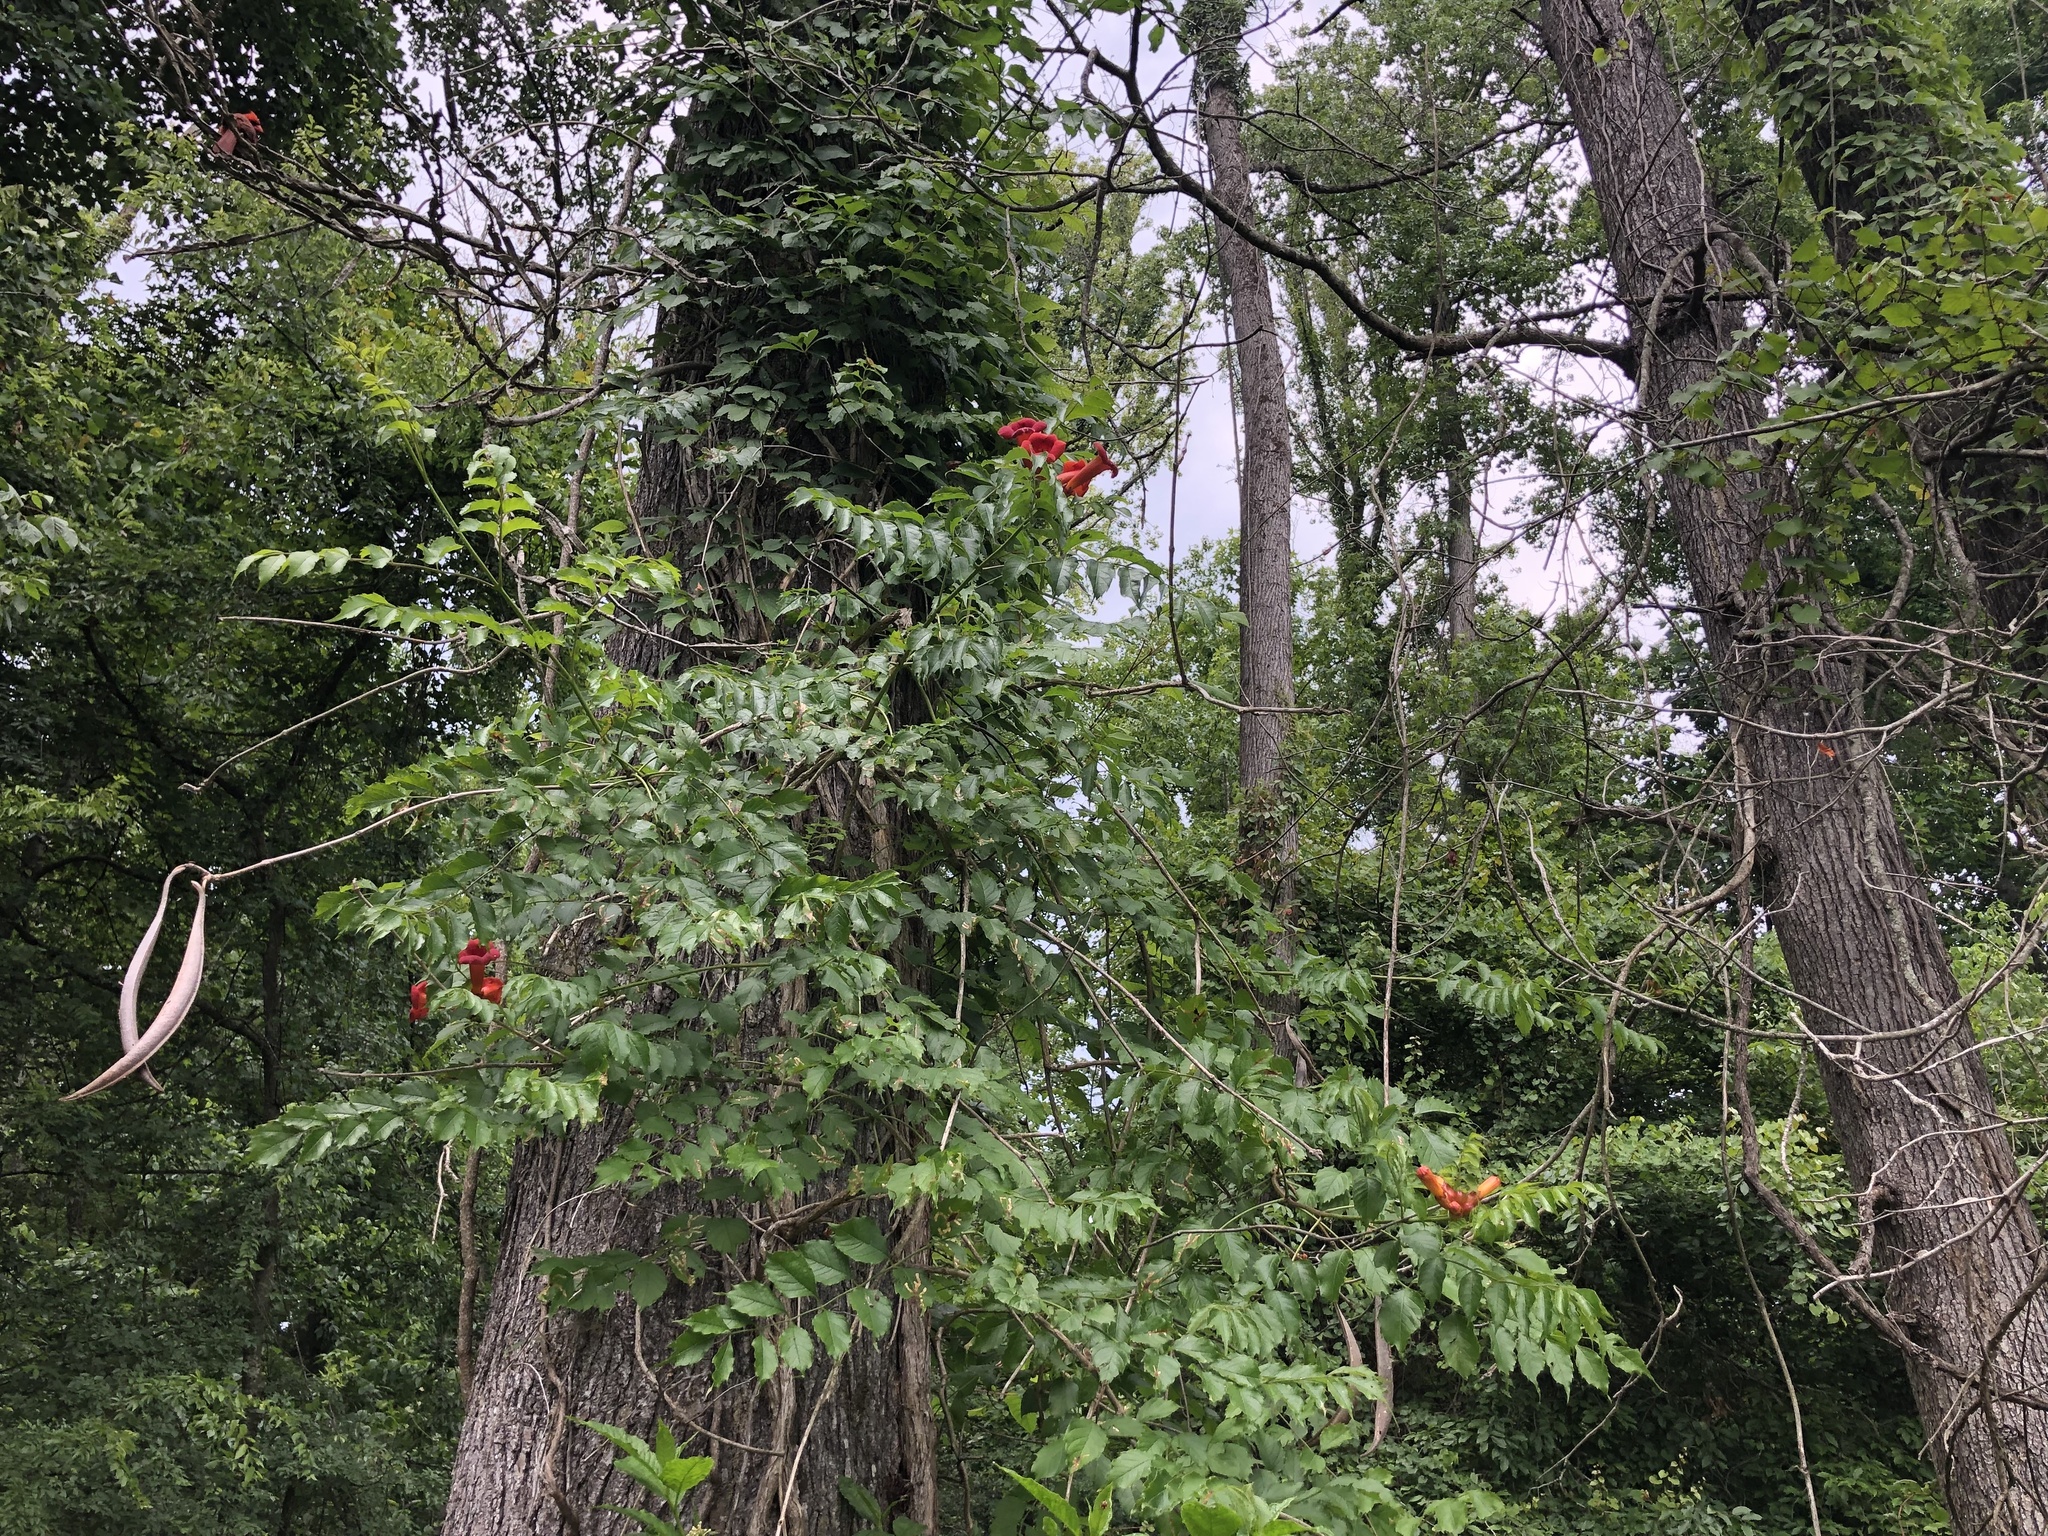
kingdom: Plantae
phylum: Tracheophyta
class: Magnoliopsida
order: Lamiales
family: Bignoniaceae
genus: Campsis
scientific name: Campsis radicans
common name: Trumpet-creeper
